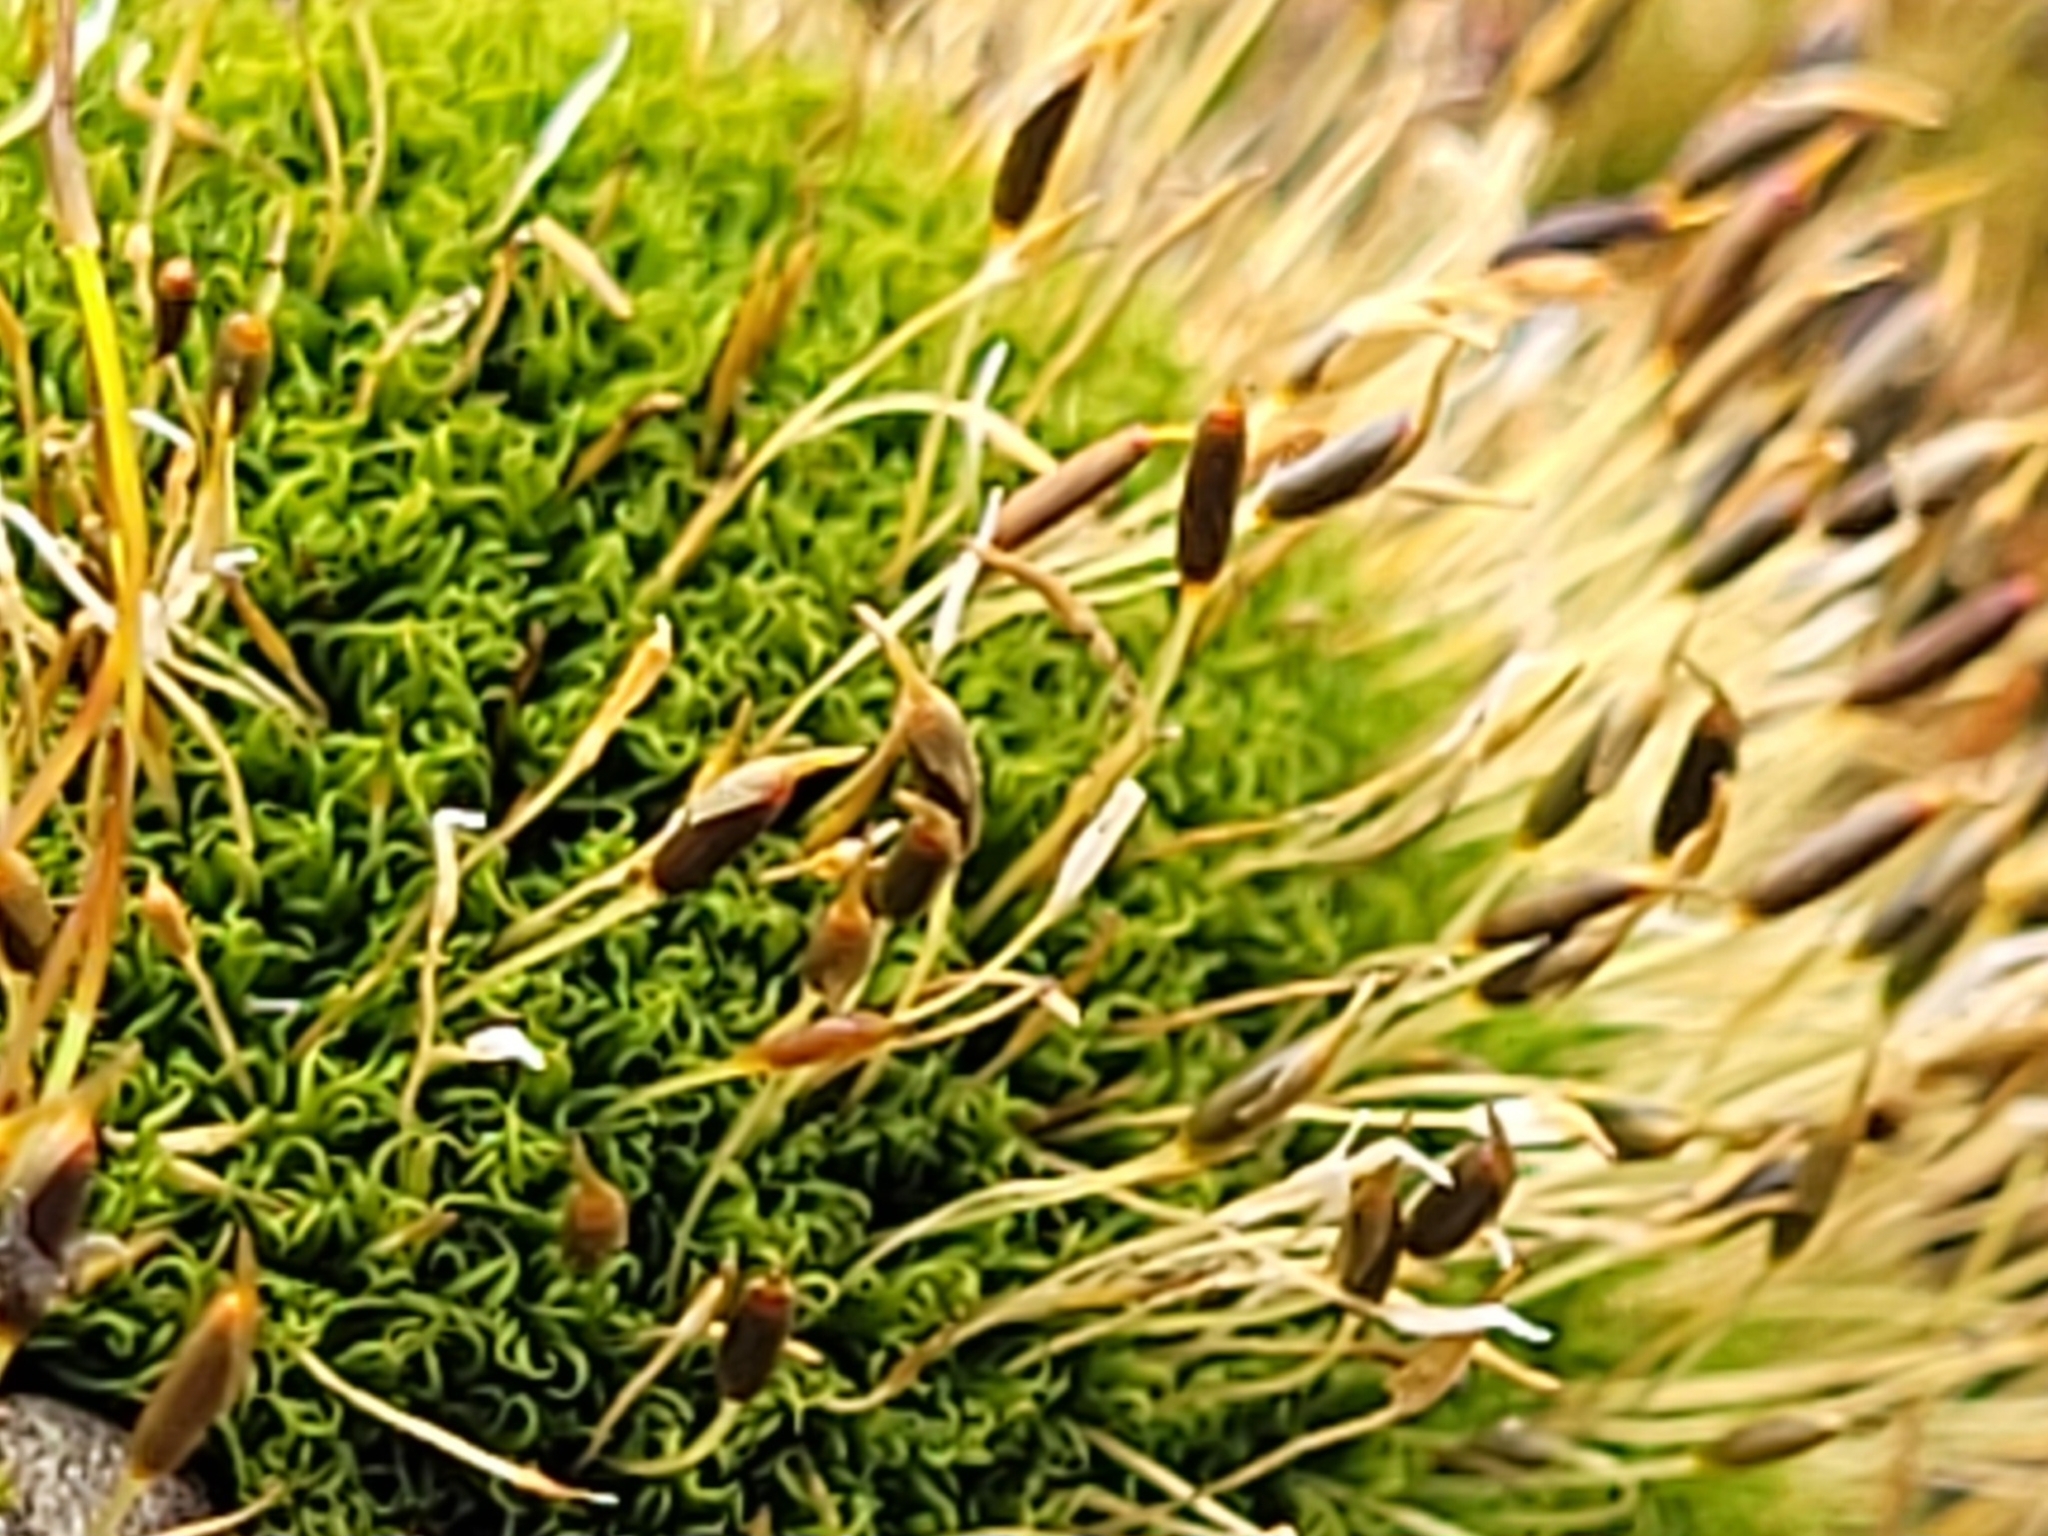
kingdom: Plantae
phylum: Bryophyta
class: Bryopsida
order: Dicranales
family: Rhabdoweisiaceae
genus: Dicranoweisia
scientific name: Dicranoweisia cirrata
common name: Common pincushion
